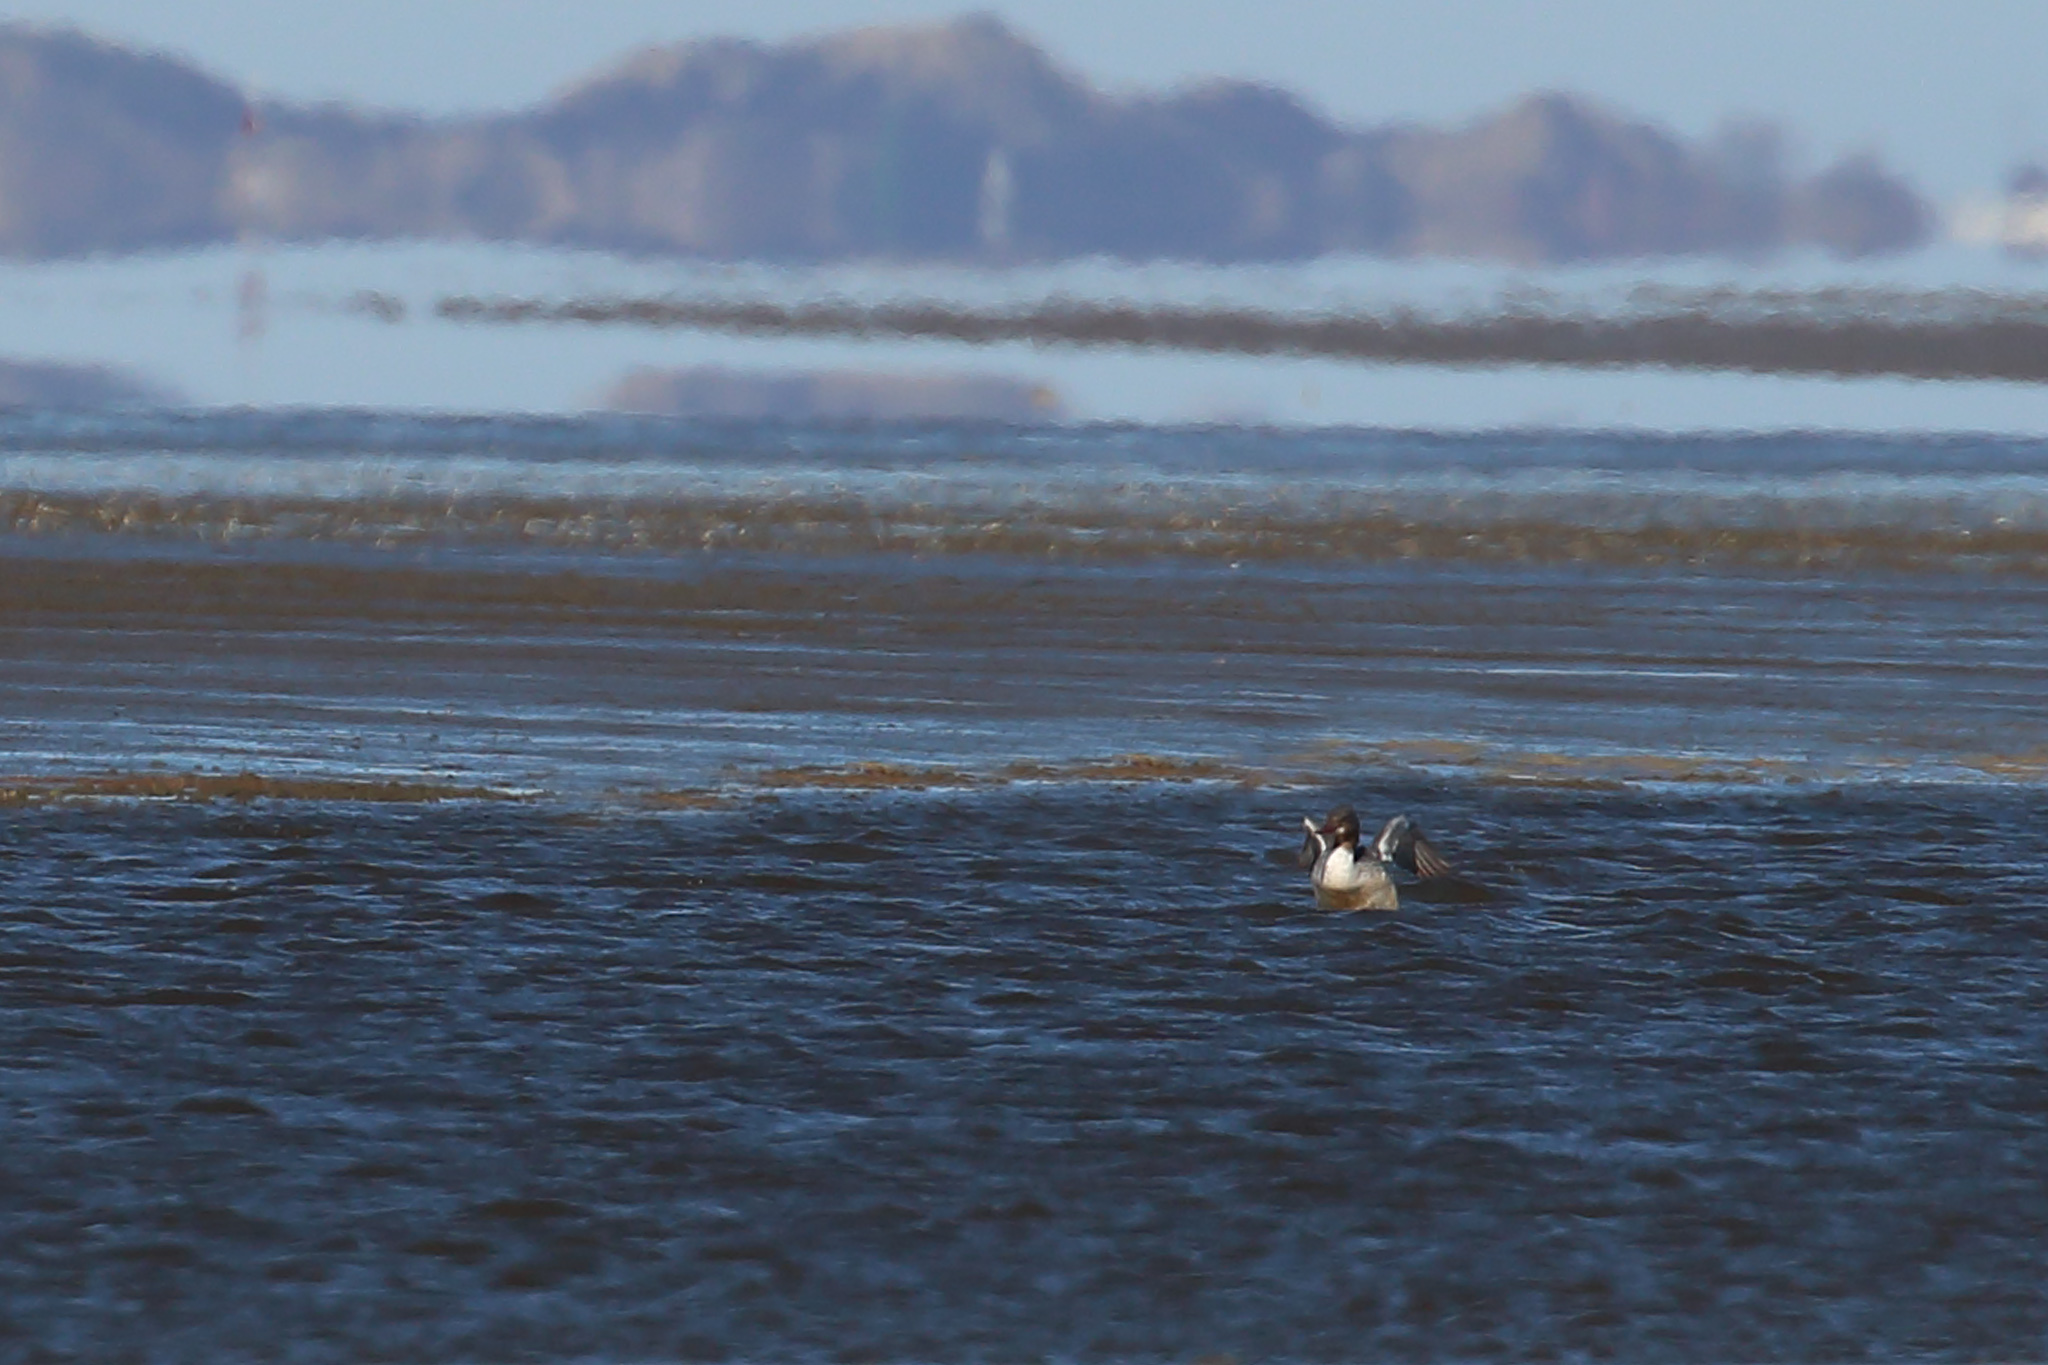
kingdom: Animalia
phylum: Chordata
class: Aves
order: Anseriformes
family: Anatidae
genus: Mergus
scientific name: Mergus merganser
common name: Common merganser
